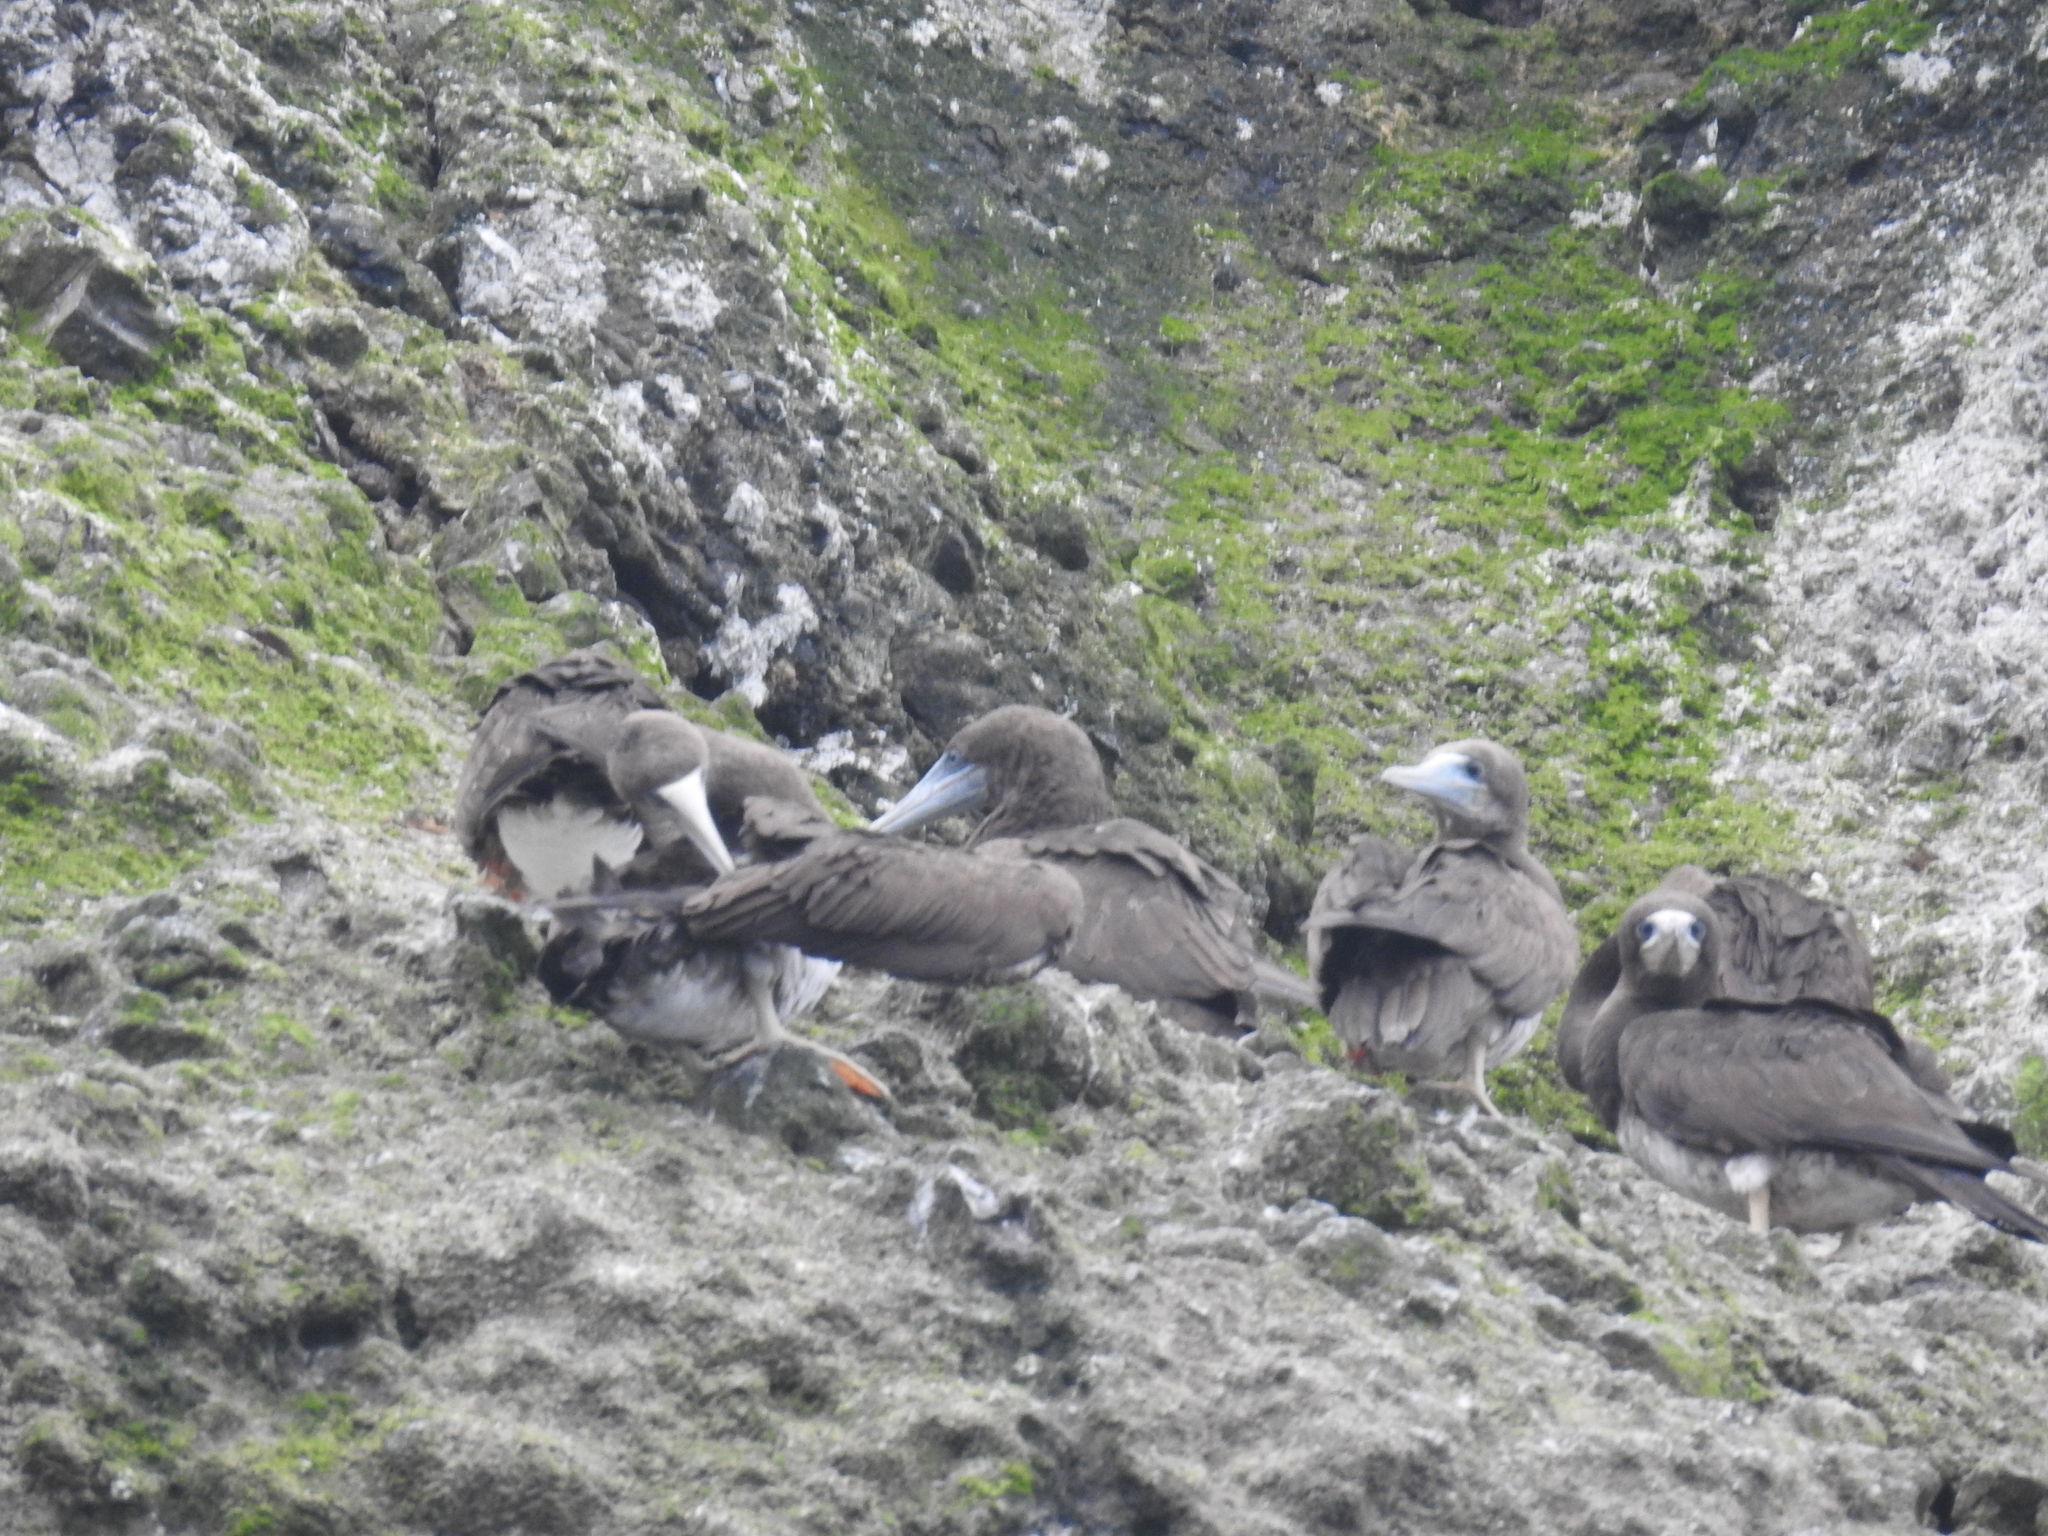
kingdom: Animalia
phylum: Chordata
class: Aves
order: Suliformes
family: Sulidae
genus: Sula
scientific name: Sula leucogaster
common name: Brown booby
